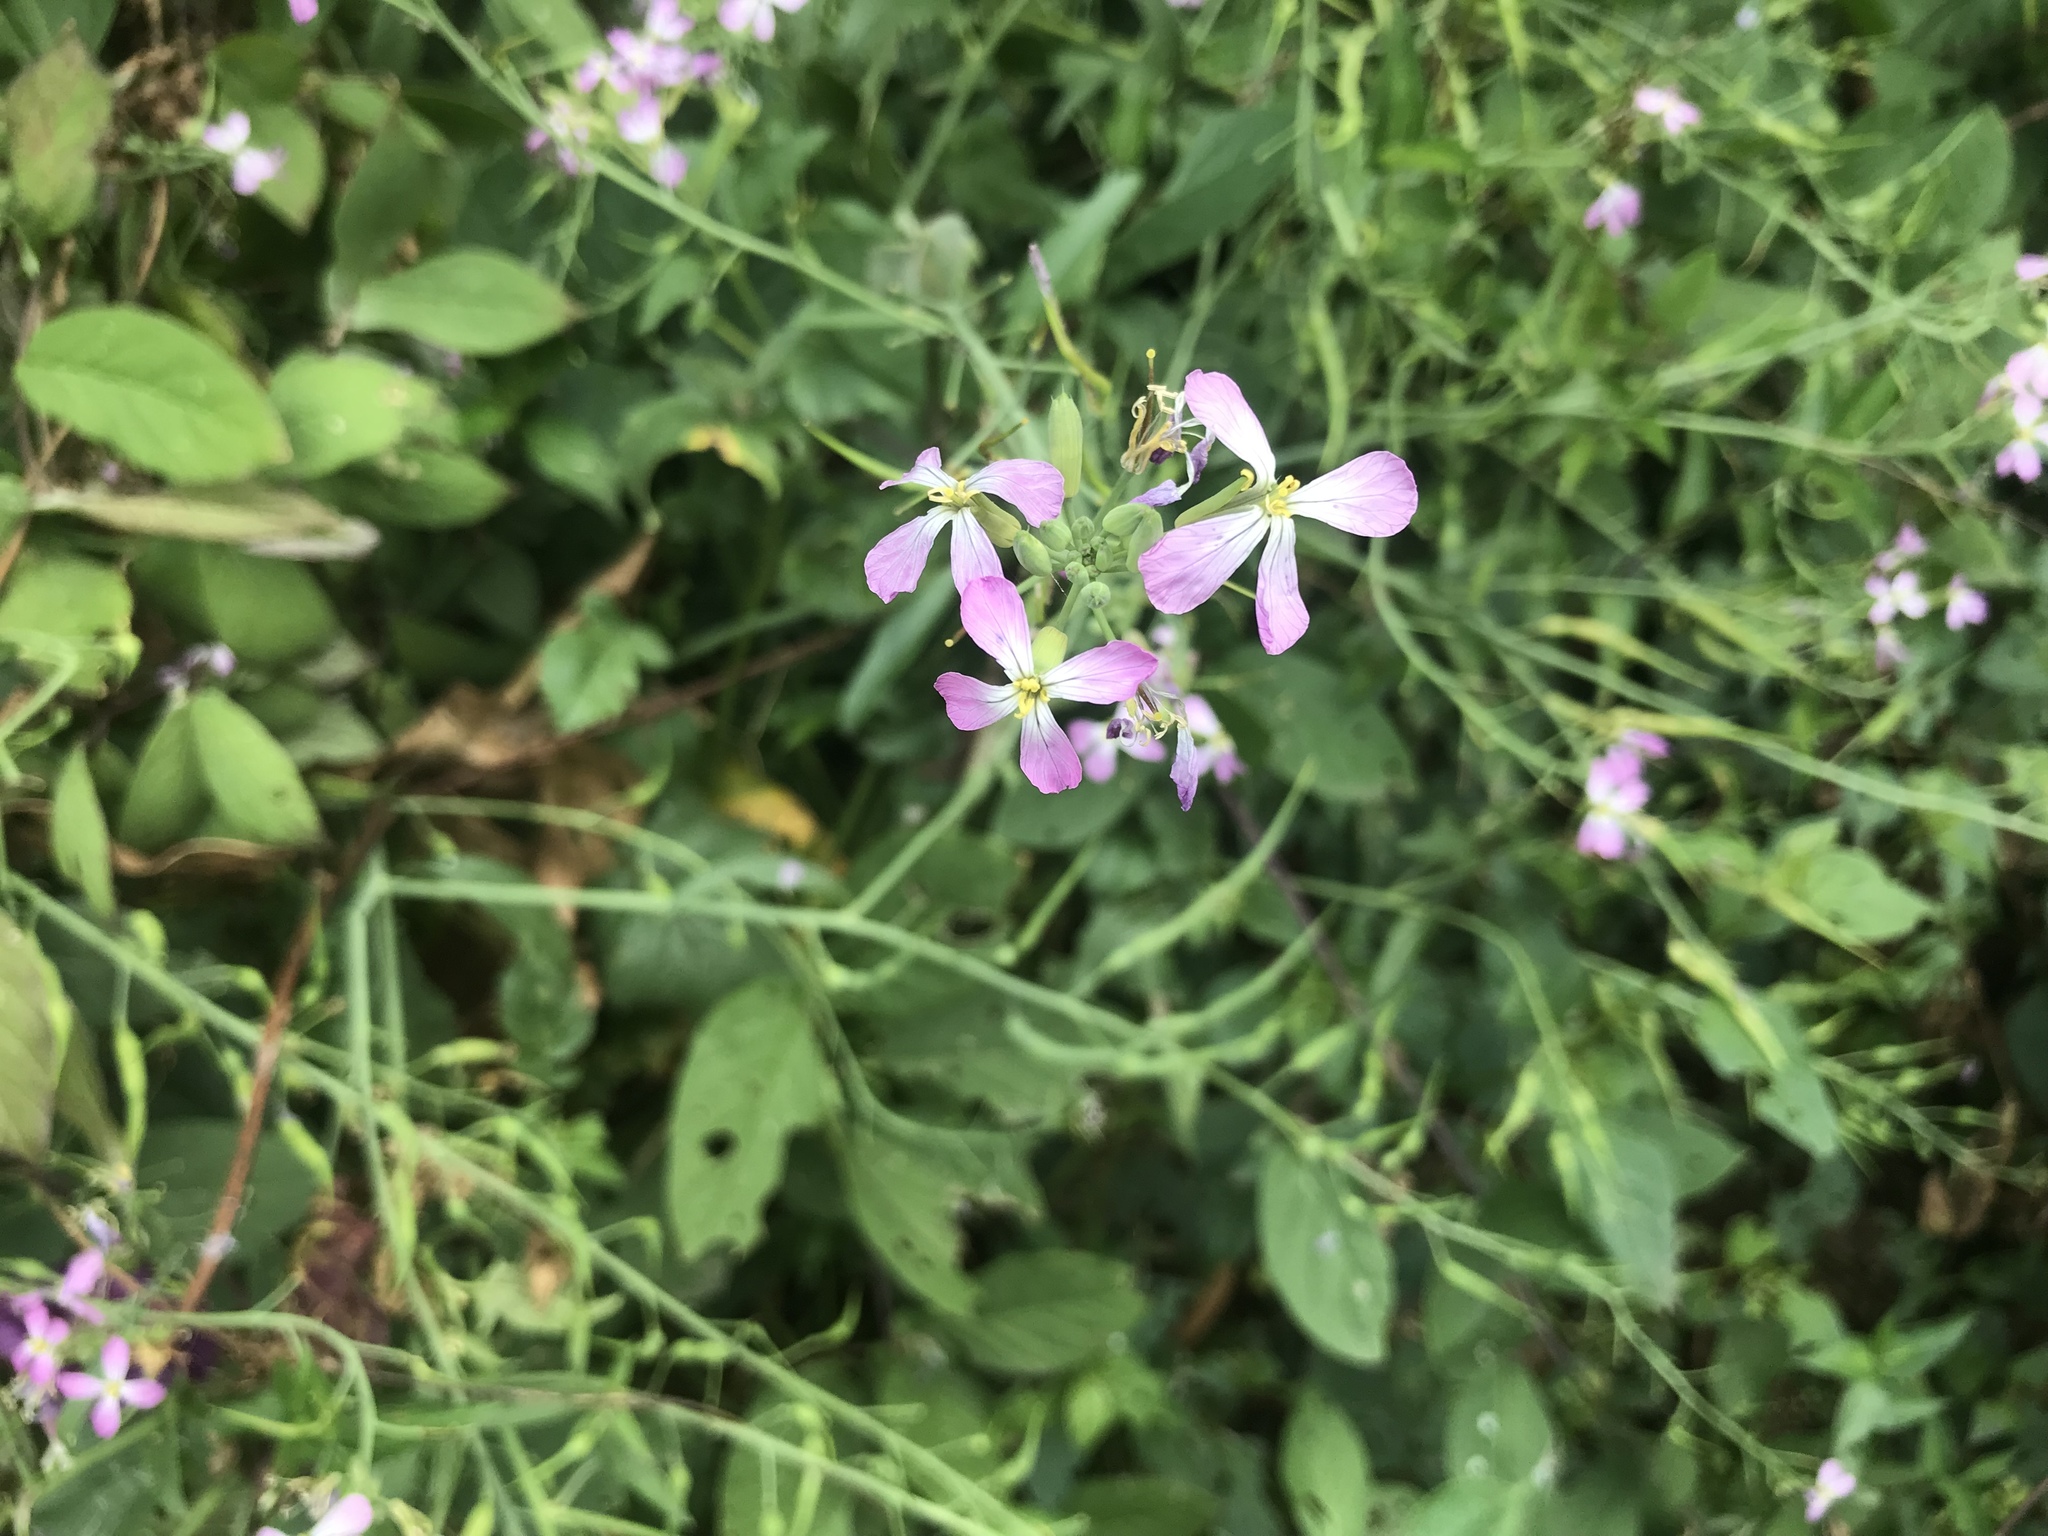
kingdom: Plantae
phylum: Tracheophyta
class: Magnoliopsida
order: Brassicales
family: Brassicaceae
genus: Raphanus
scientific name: Raphanus sativus
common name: Cultivated radish
